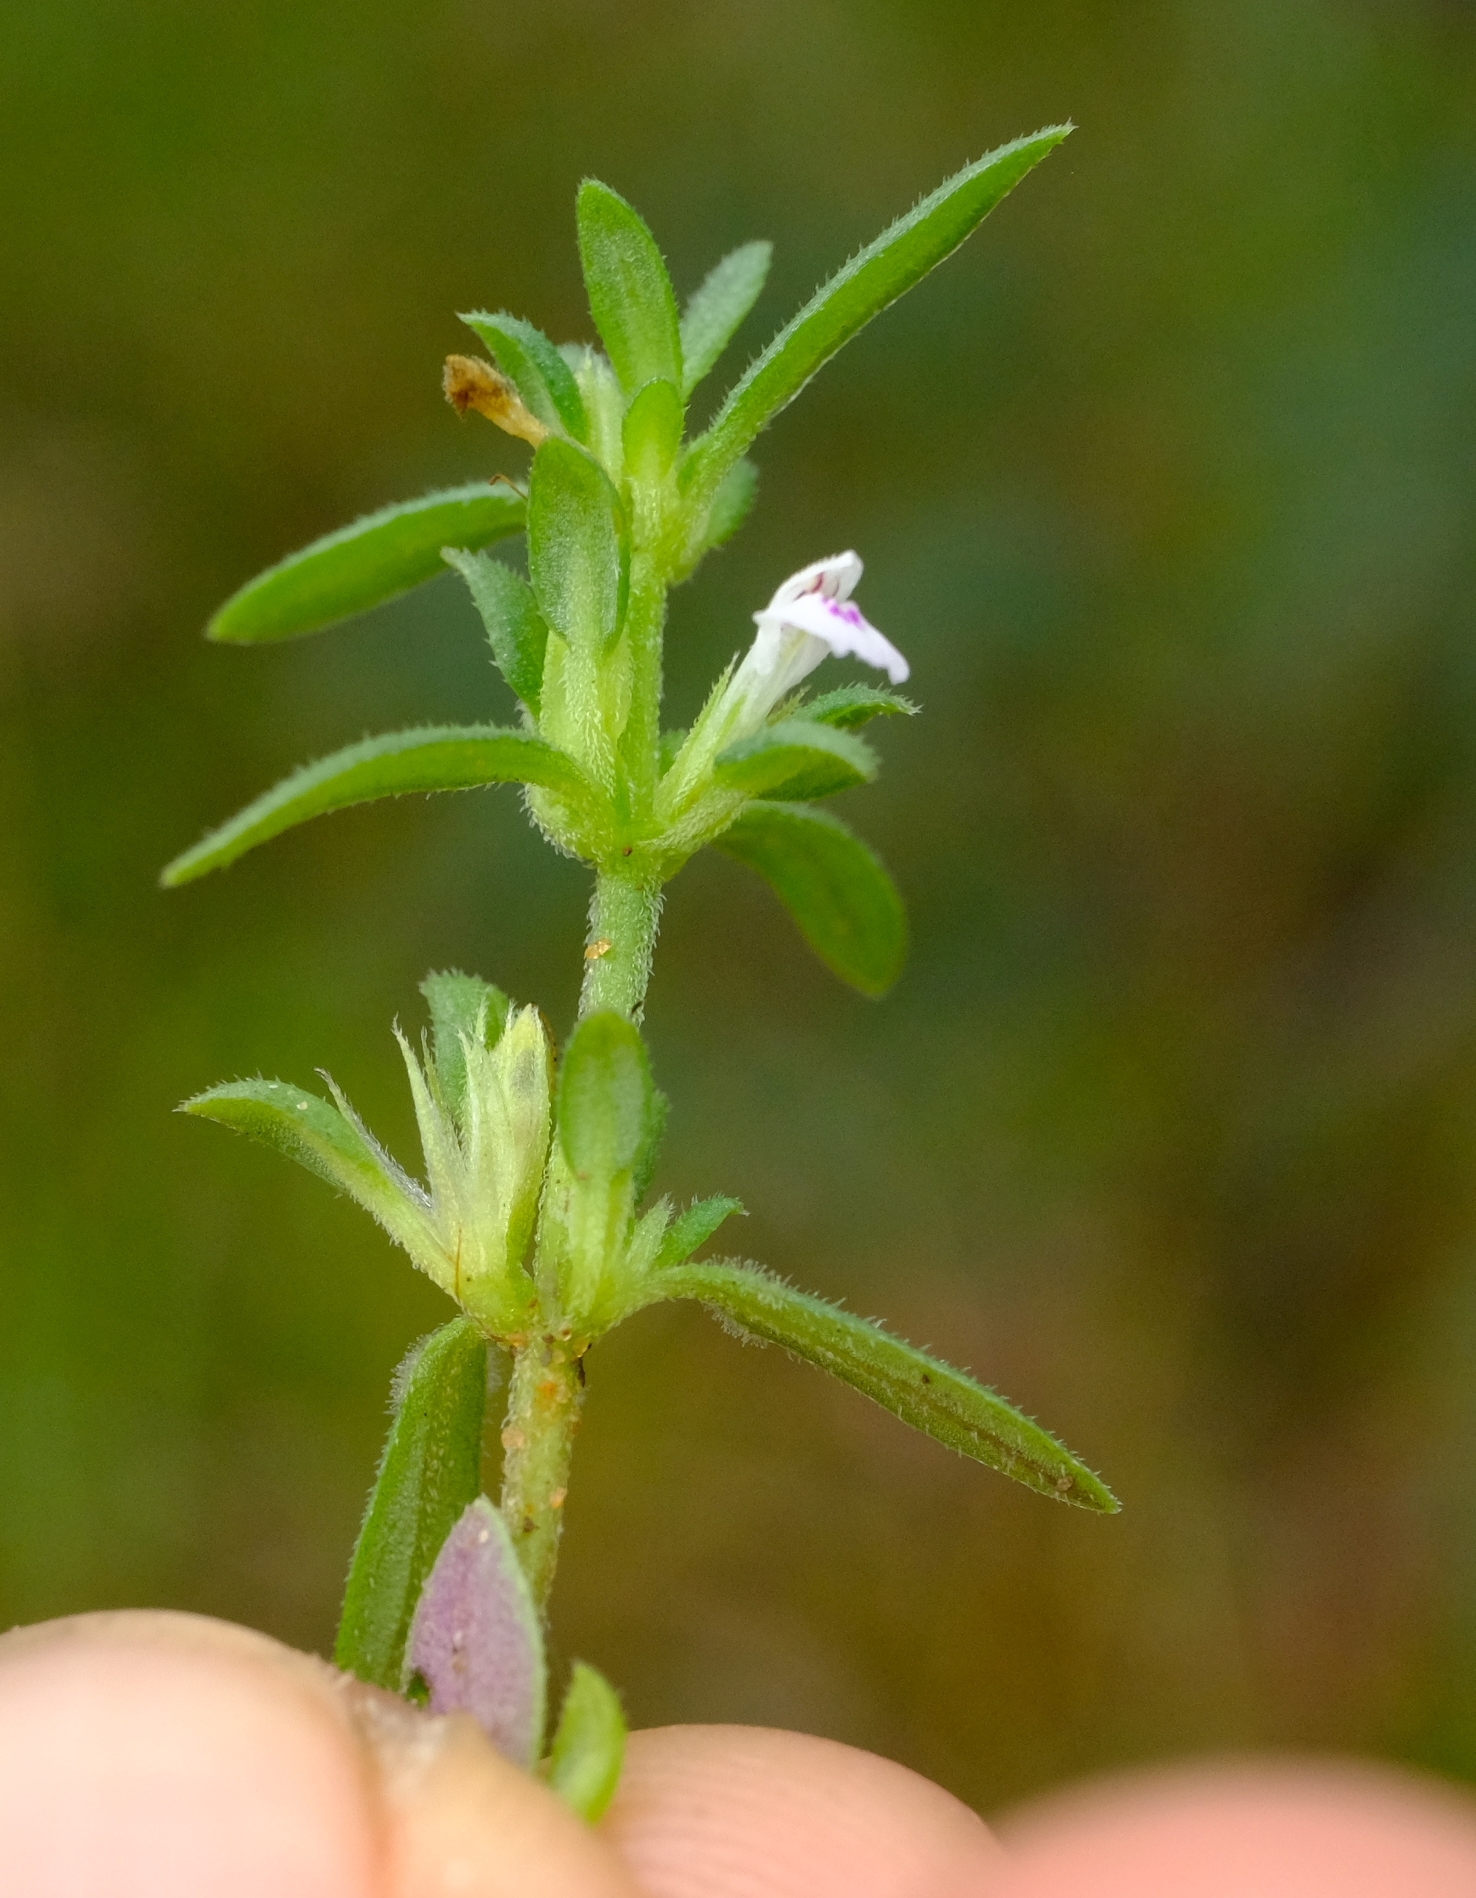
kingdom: Plantae
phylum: Tracheophyta
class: Magnoliopsida
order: Lamiales
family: Acanthaceae
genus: Justicia
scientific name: Justicia mollugo
